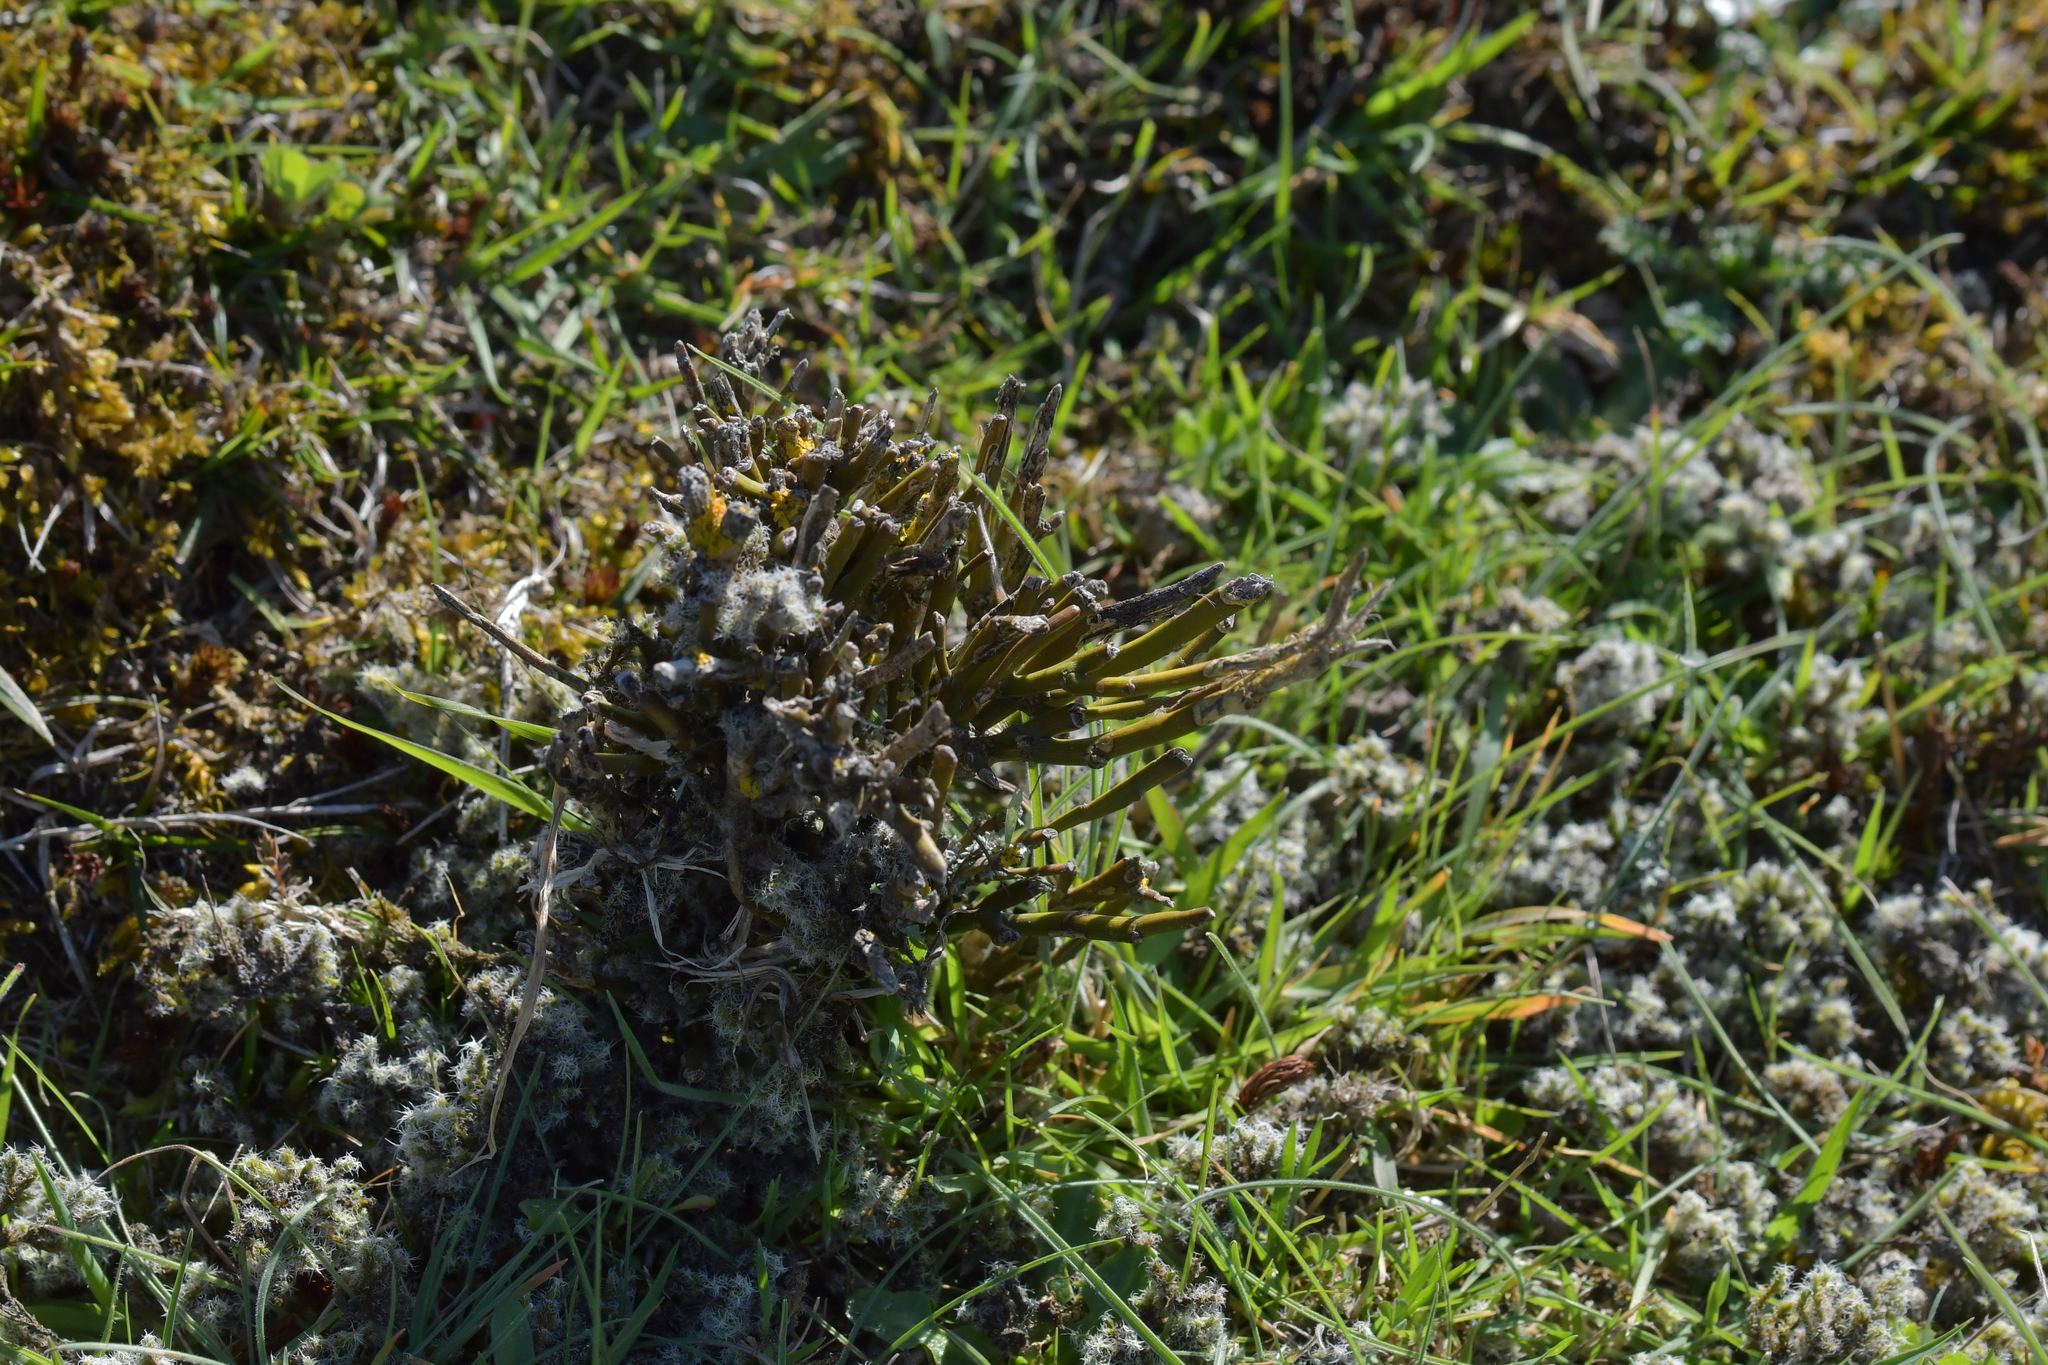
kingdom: Plantae
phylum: Tracheophyta
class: Magnoliopsida
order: Fabales
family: Fabaceae
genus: Carmichaelia
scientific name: Carmichaelia australis
